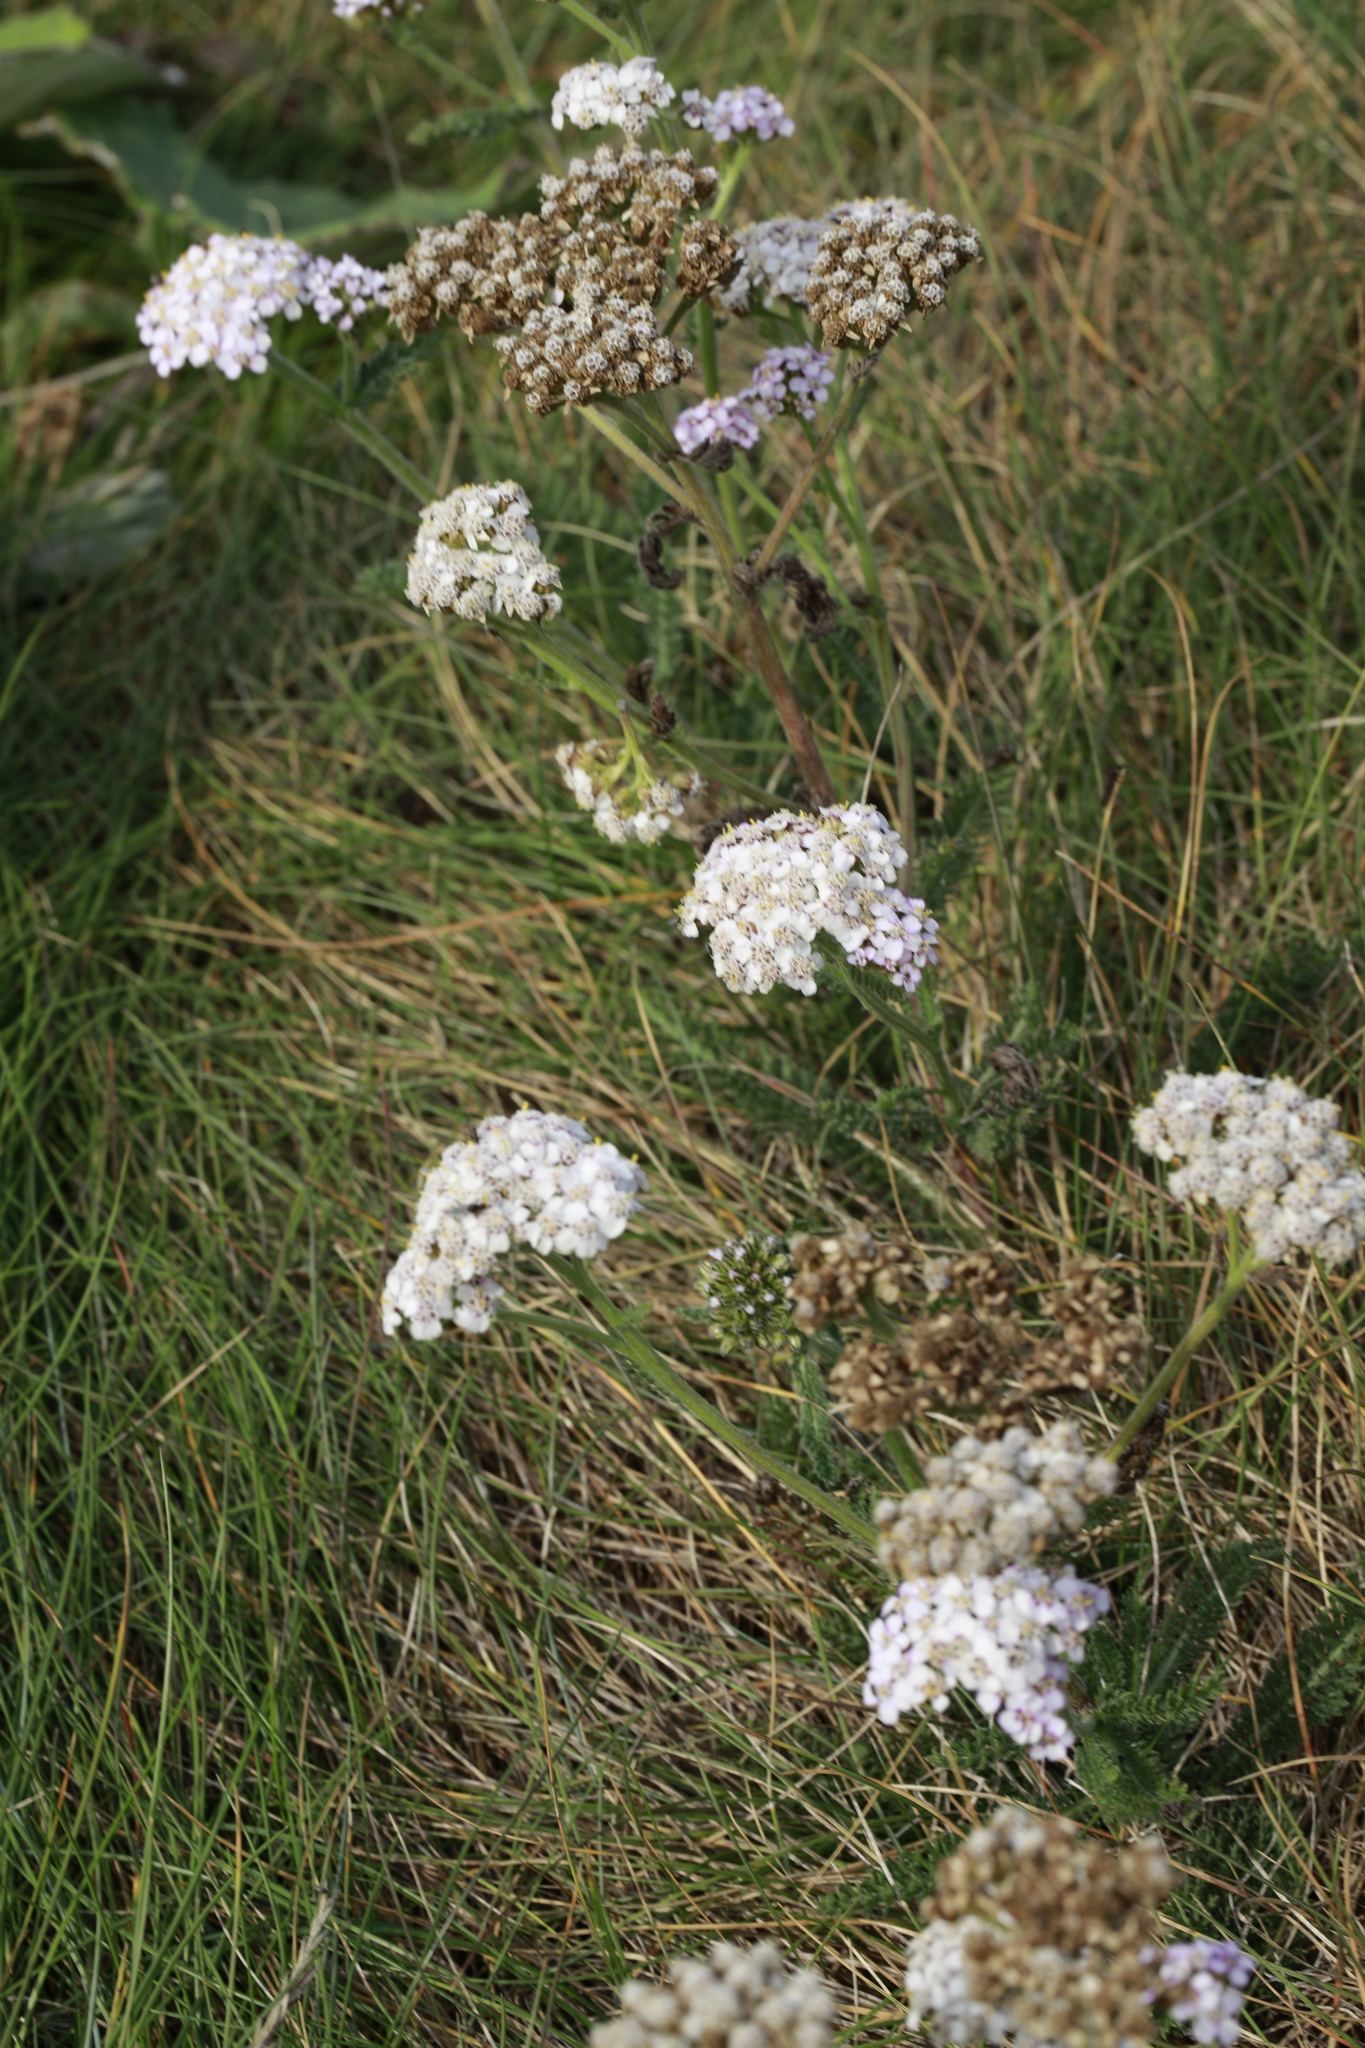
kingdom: Plantae
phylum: Tracheophyta
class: Magnoliopsida
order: Asterales
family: Asteraceae
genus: Achillea
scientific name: Achillea millefolium
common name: Yarrow
